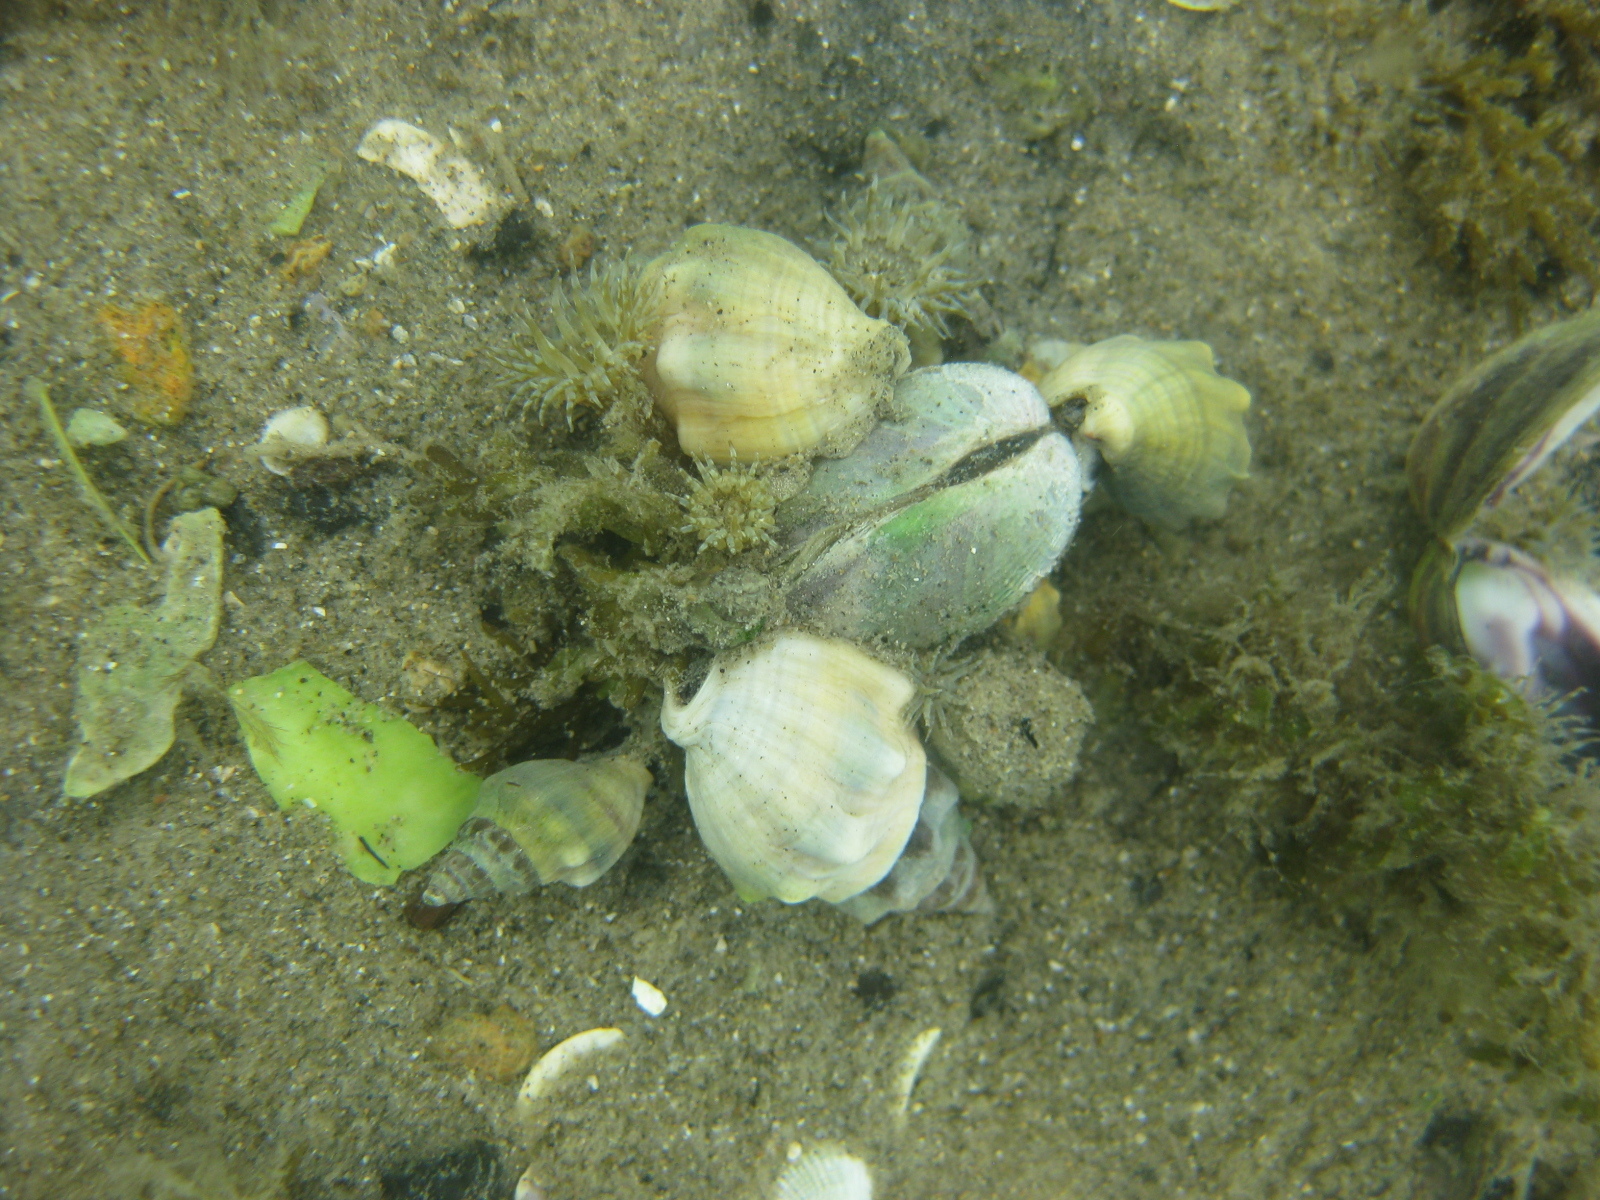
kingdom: Animalia
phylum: Mollusca
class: Bivalvia
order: Venerida
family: Veneridae
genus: Austrovenus
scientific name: Austrovenus stutchburyi
